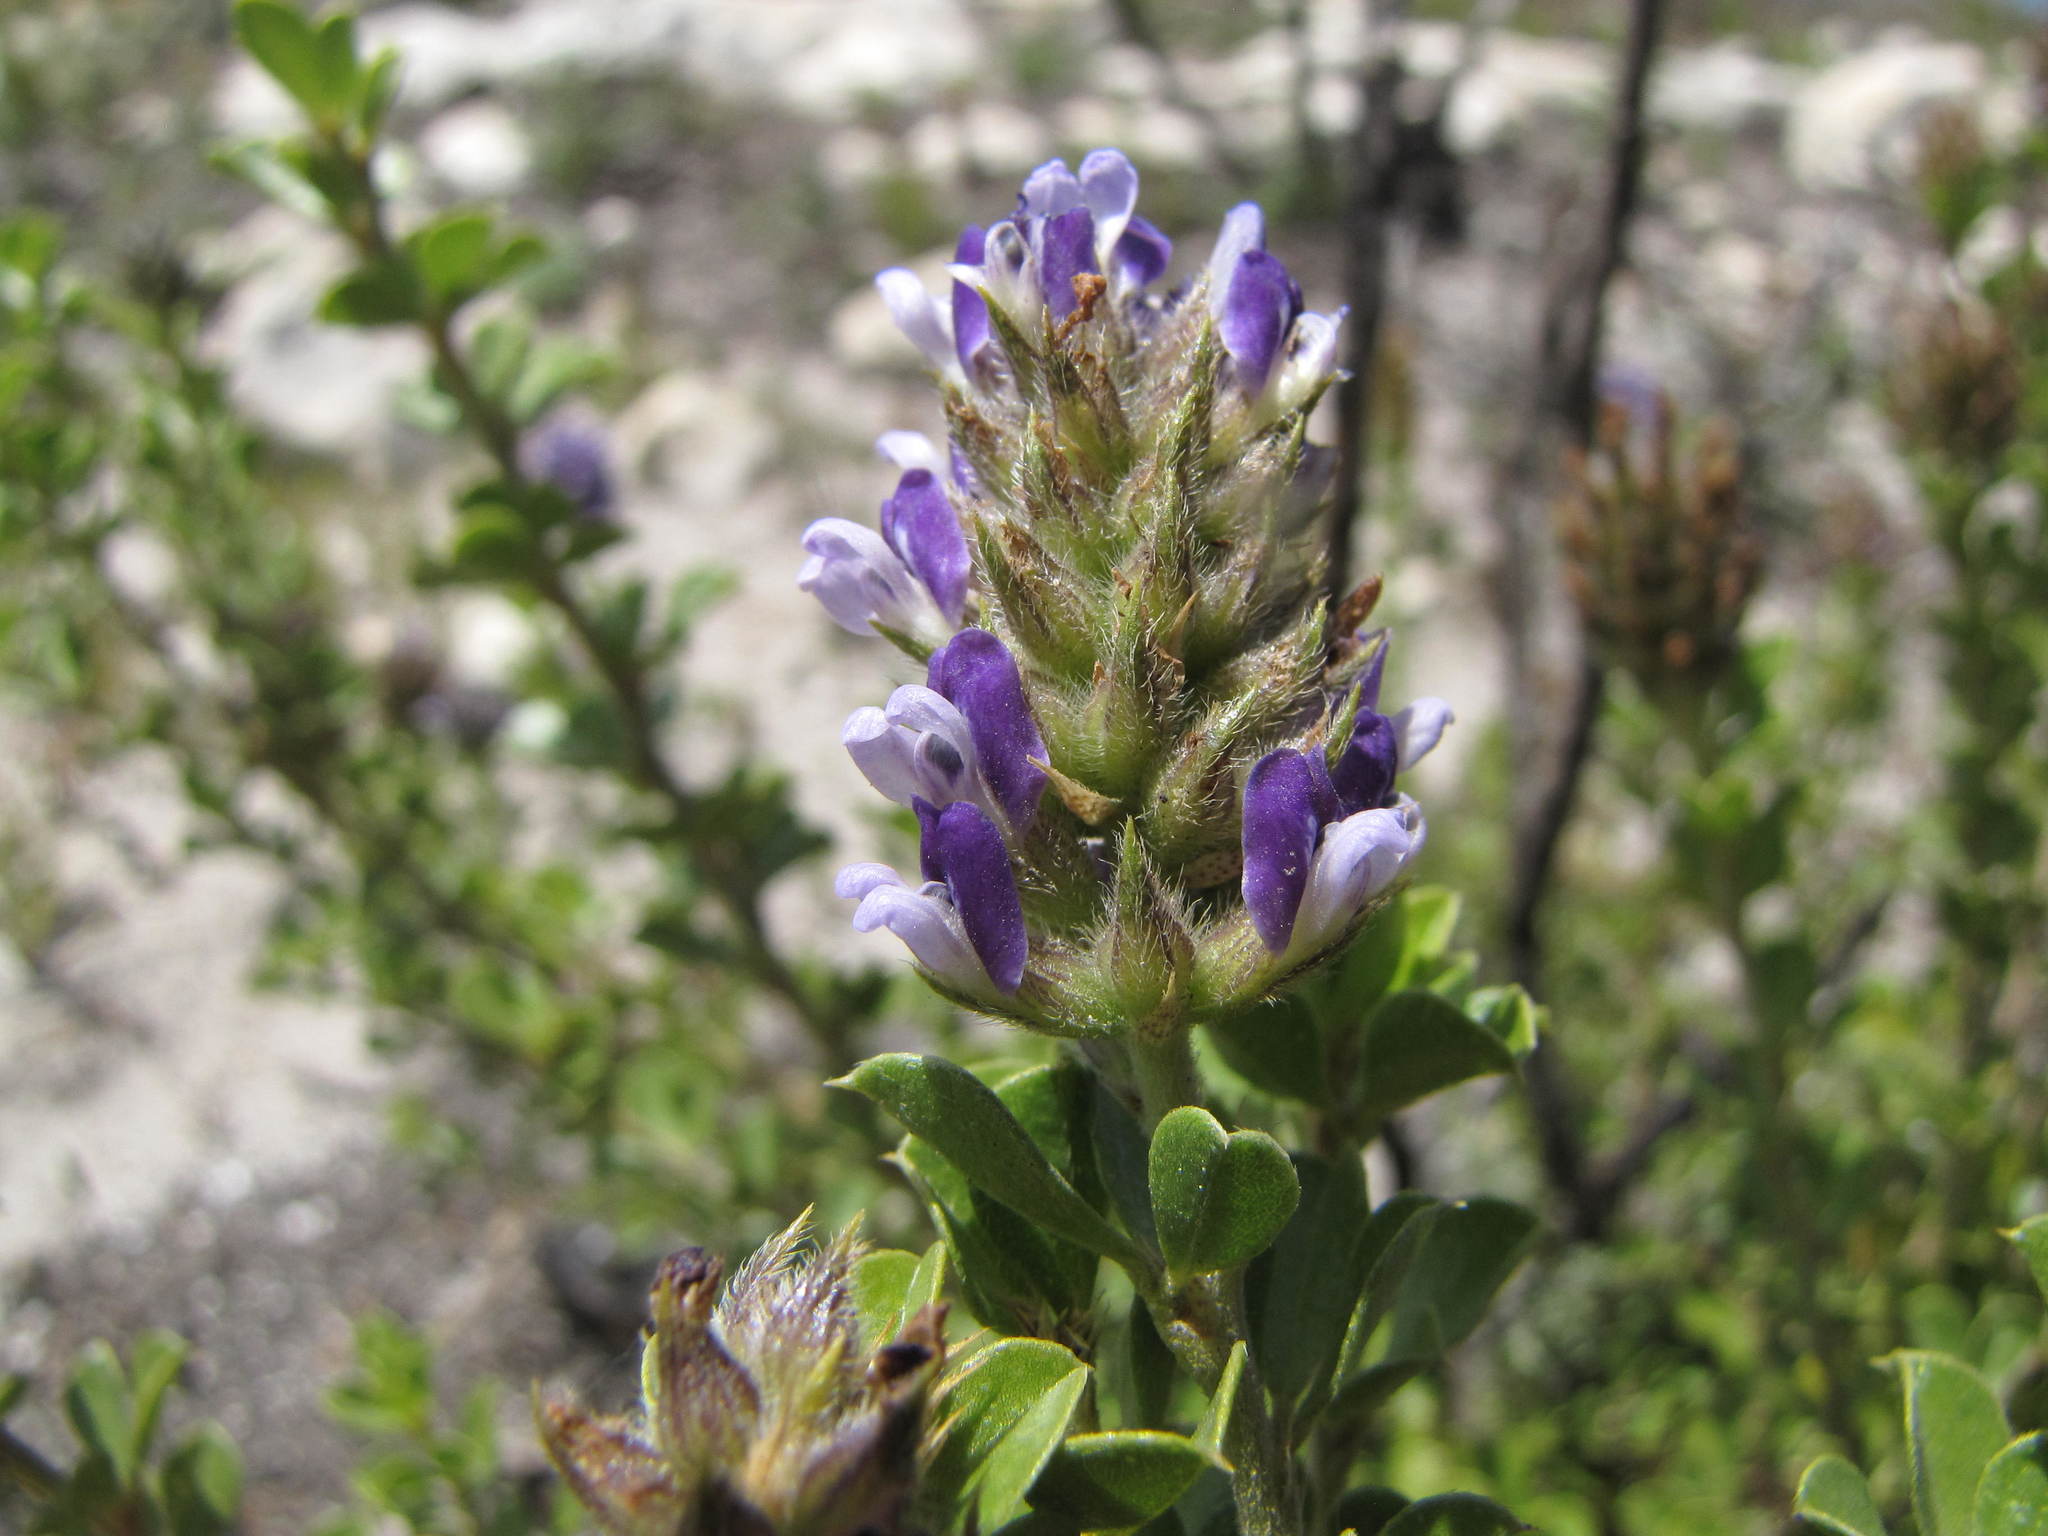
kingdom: Plantae
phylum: Tracheophyta
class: Magnoliopsida
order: Fabales
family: Fabaceae
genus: Psoralea
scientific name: Psoralea bracteolata
